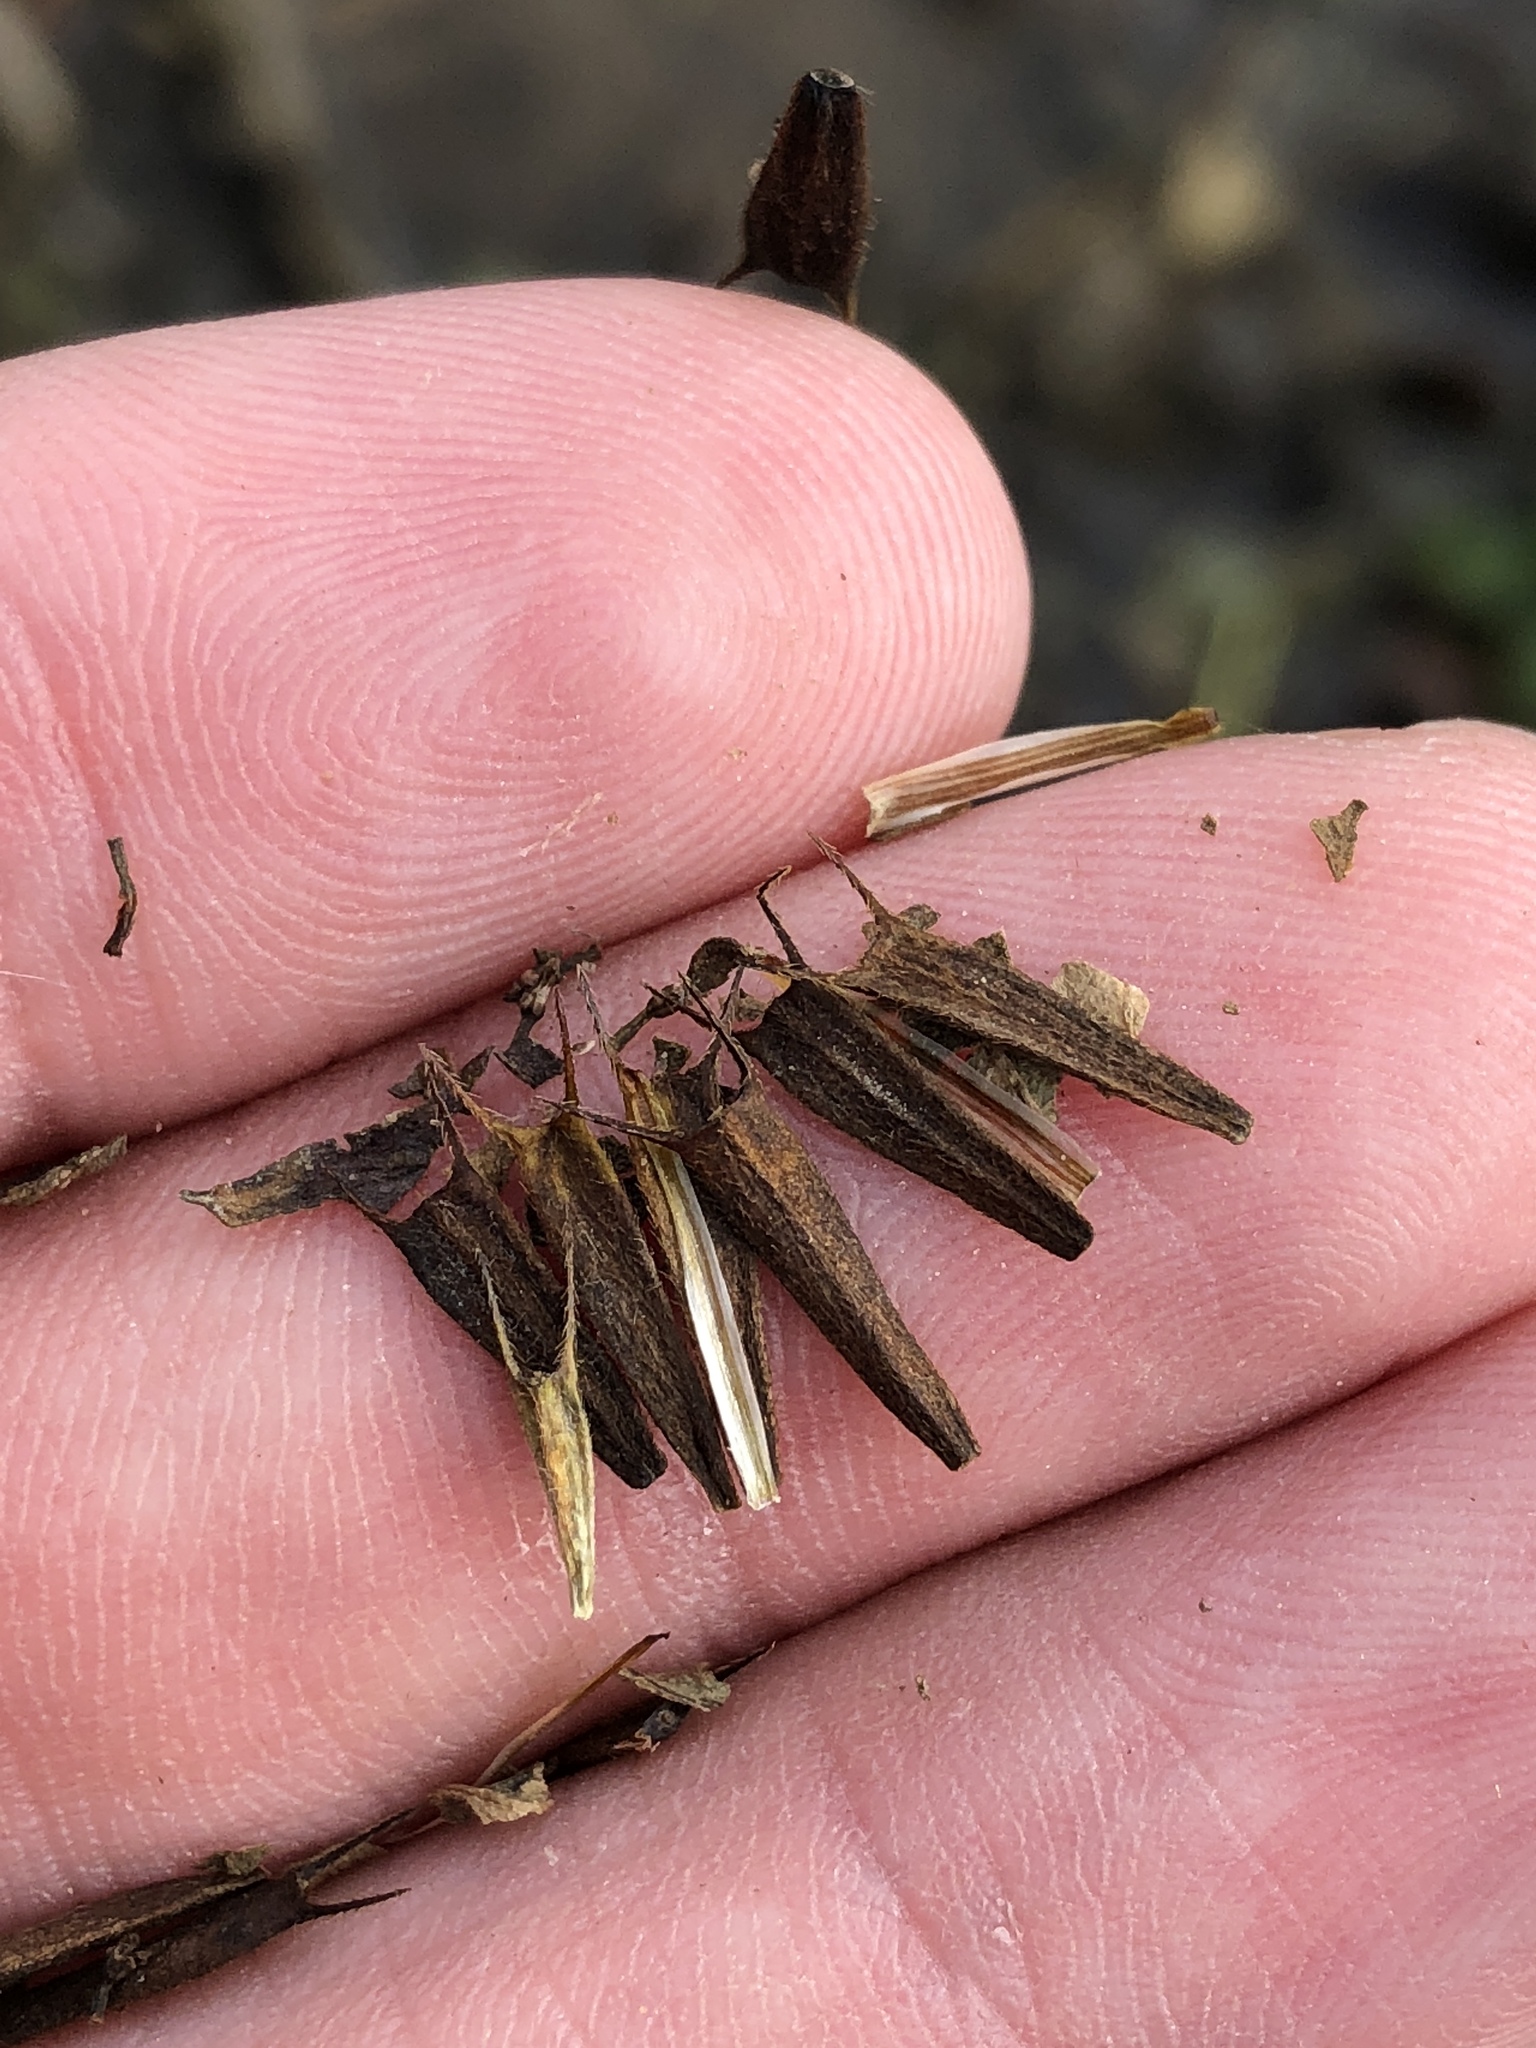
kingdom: Plantae
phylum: Tracheophyta
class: Magnoliopsida
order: Asterales
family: Asteraceae
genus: Bidens
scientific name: Bidens frondosa
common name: Beggarticks
